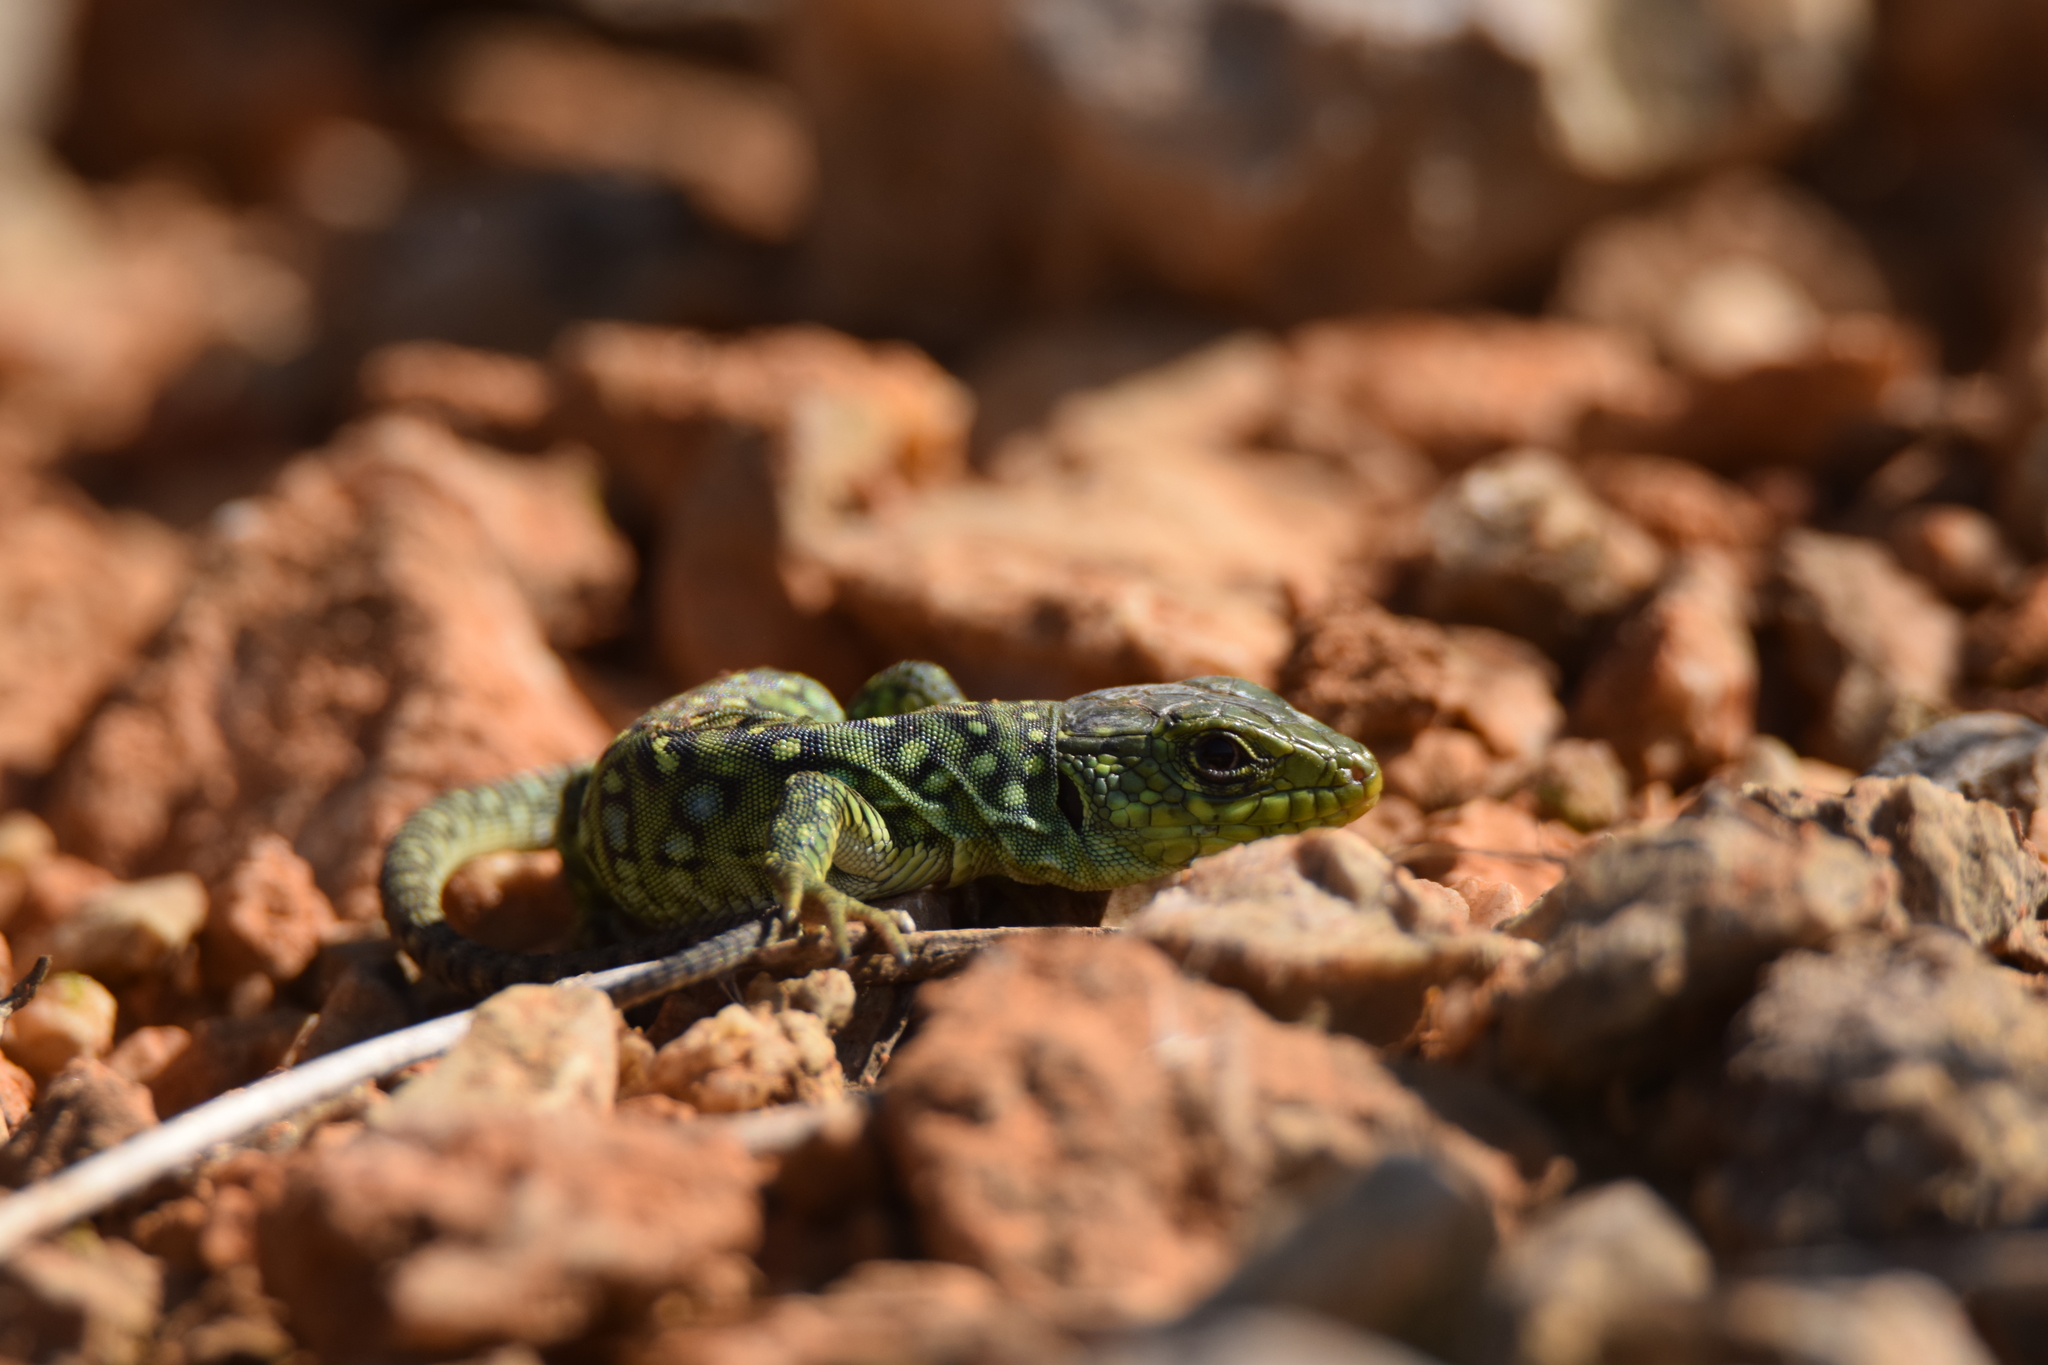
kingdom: Animalia
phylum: Chordata
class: Squamata
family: Lacertidae
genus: Timon
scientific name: Timon lepidus
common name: Ocellated lizard
